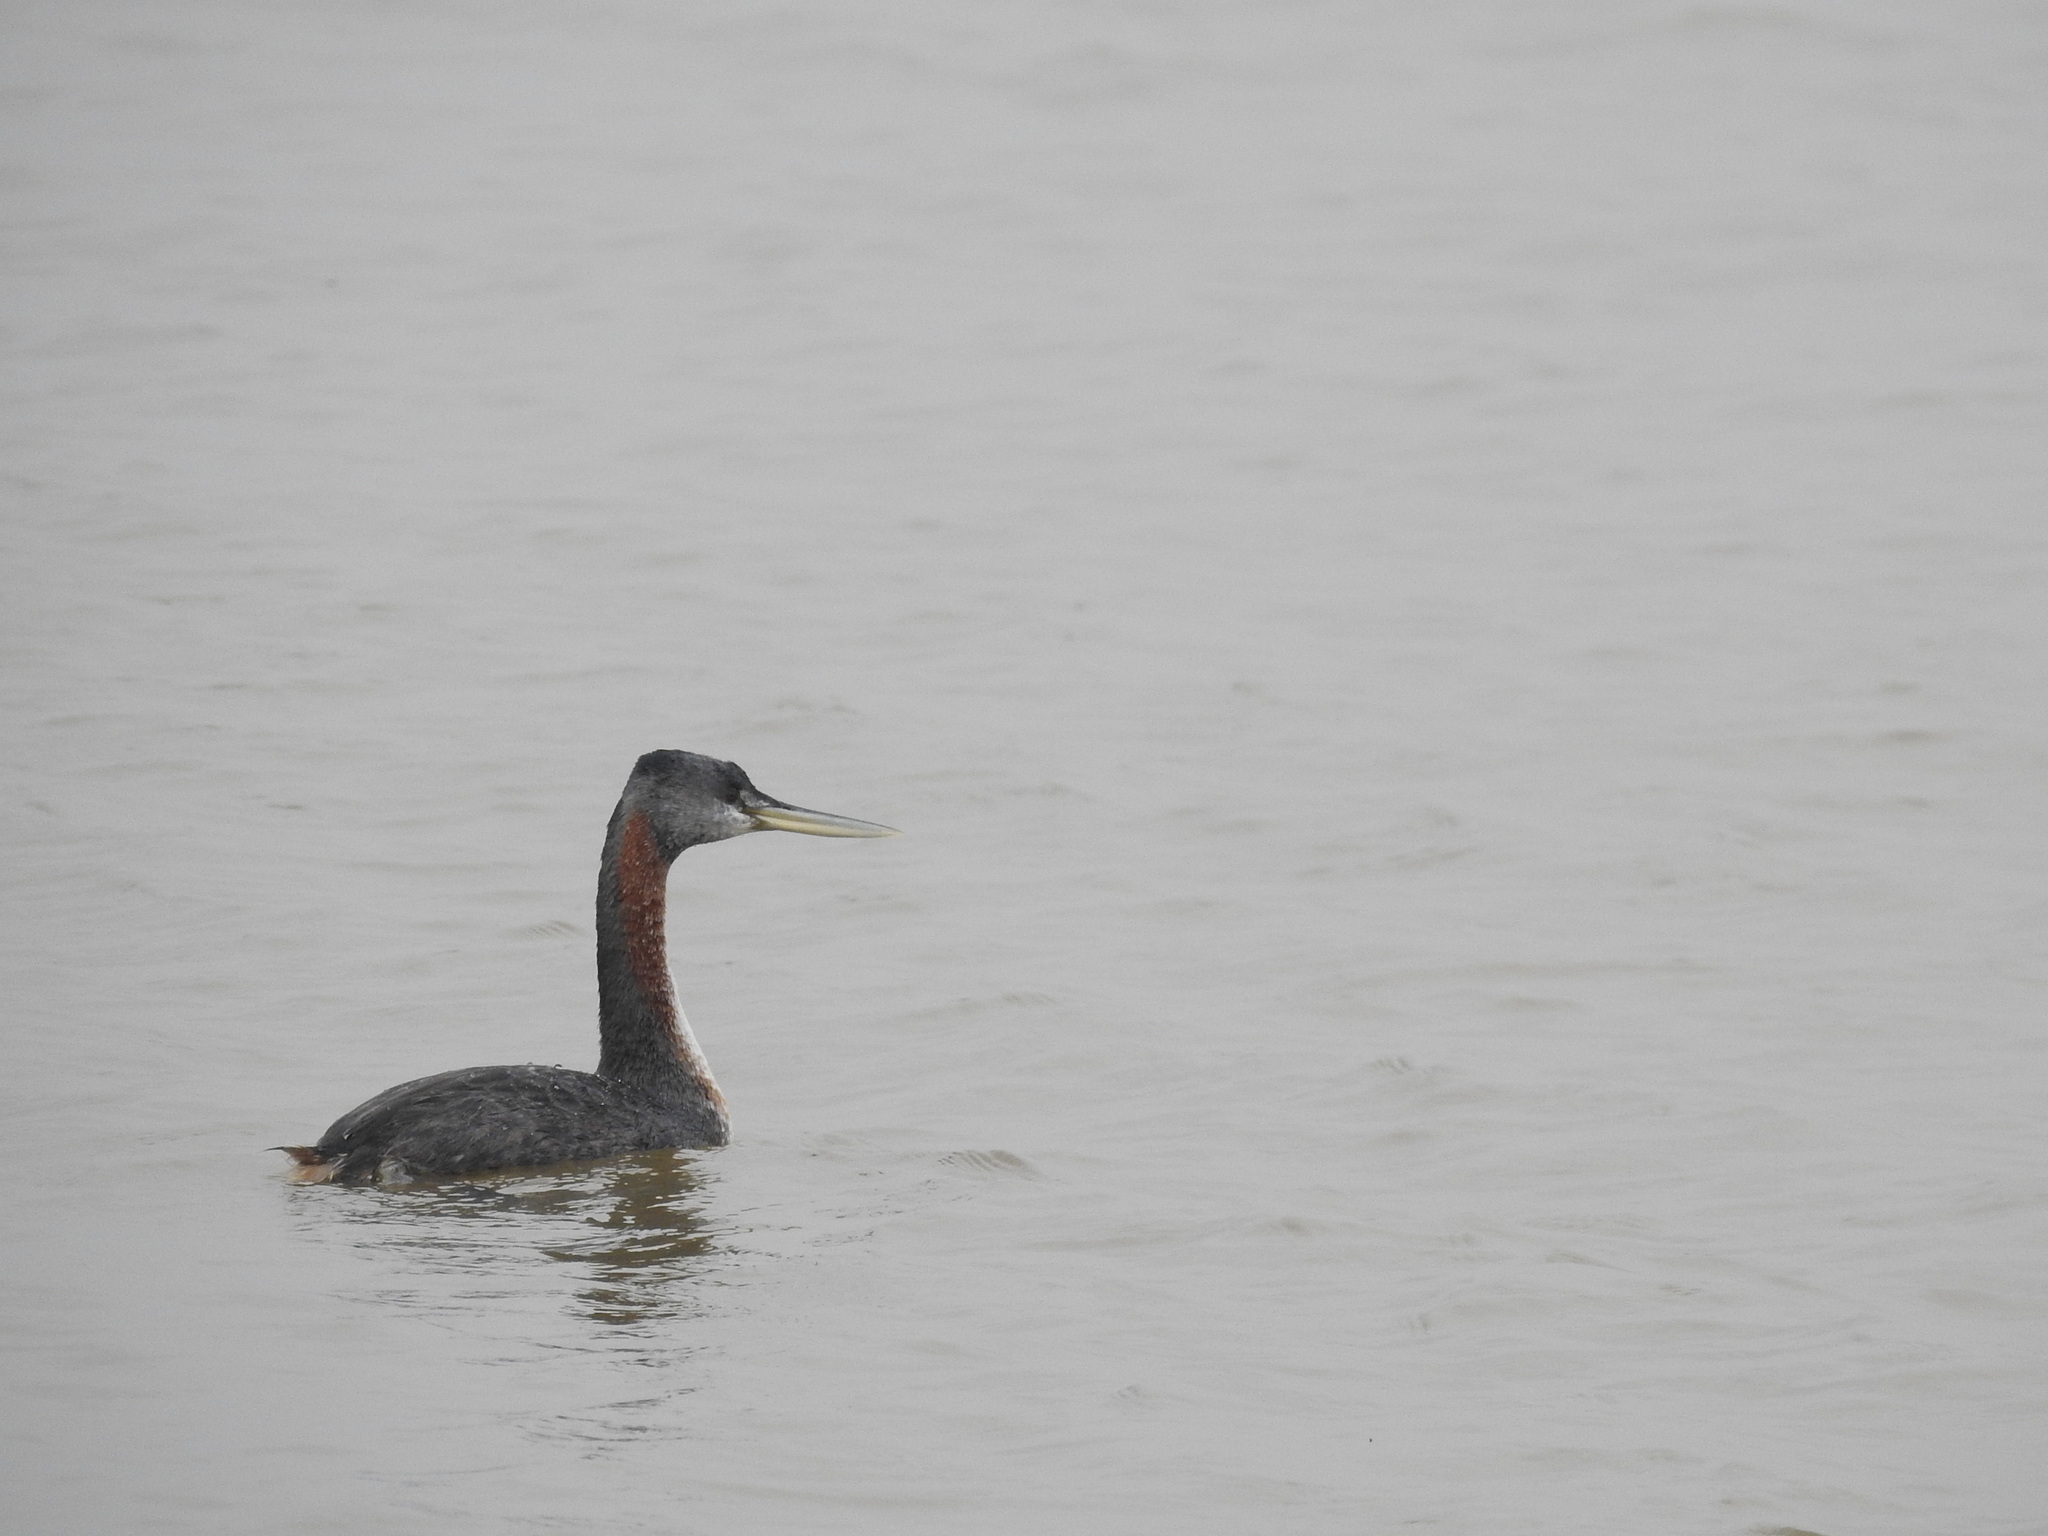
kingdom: Animalia
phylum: Chordata
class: Aves
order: Podicipediformes
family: Podicipedidae
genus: Podiceps
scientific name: Podiceps major
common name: Great grebe
